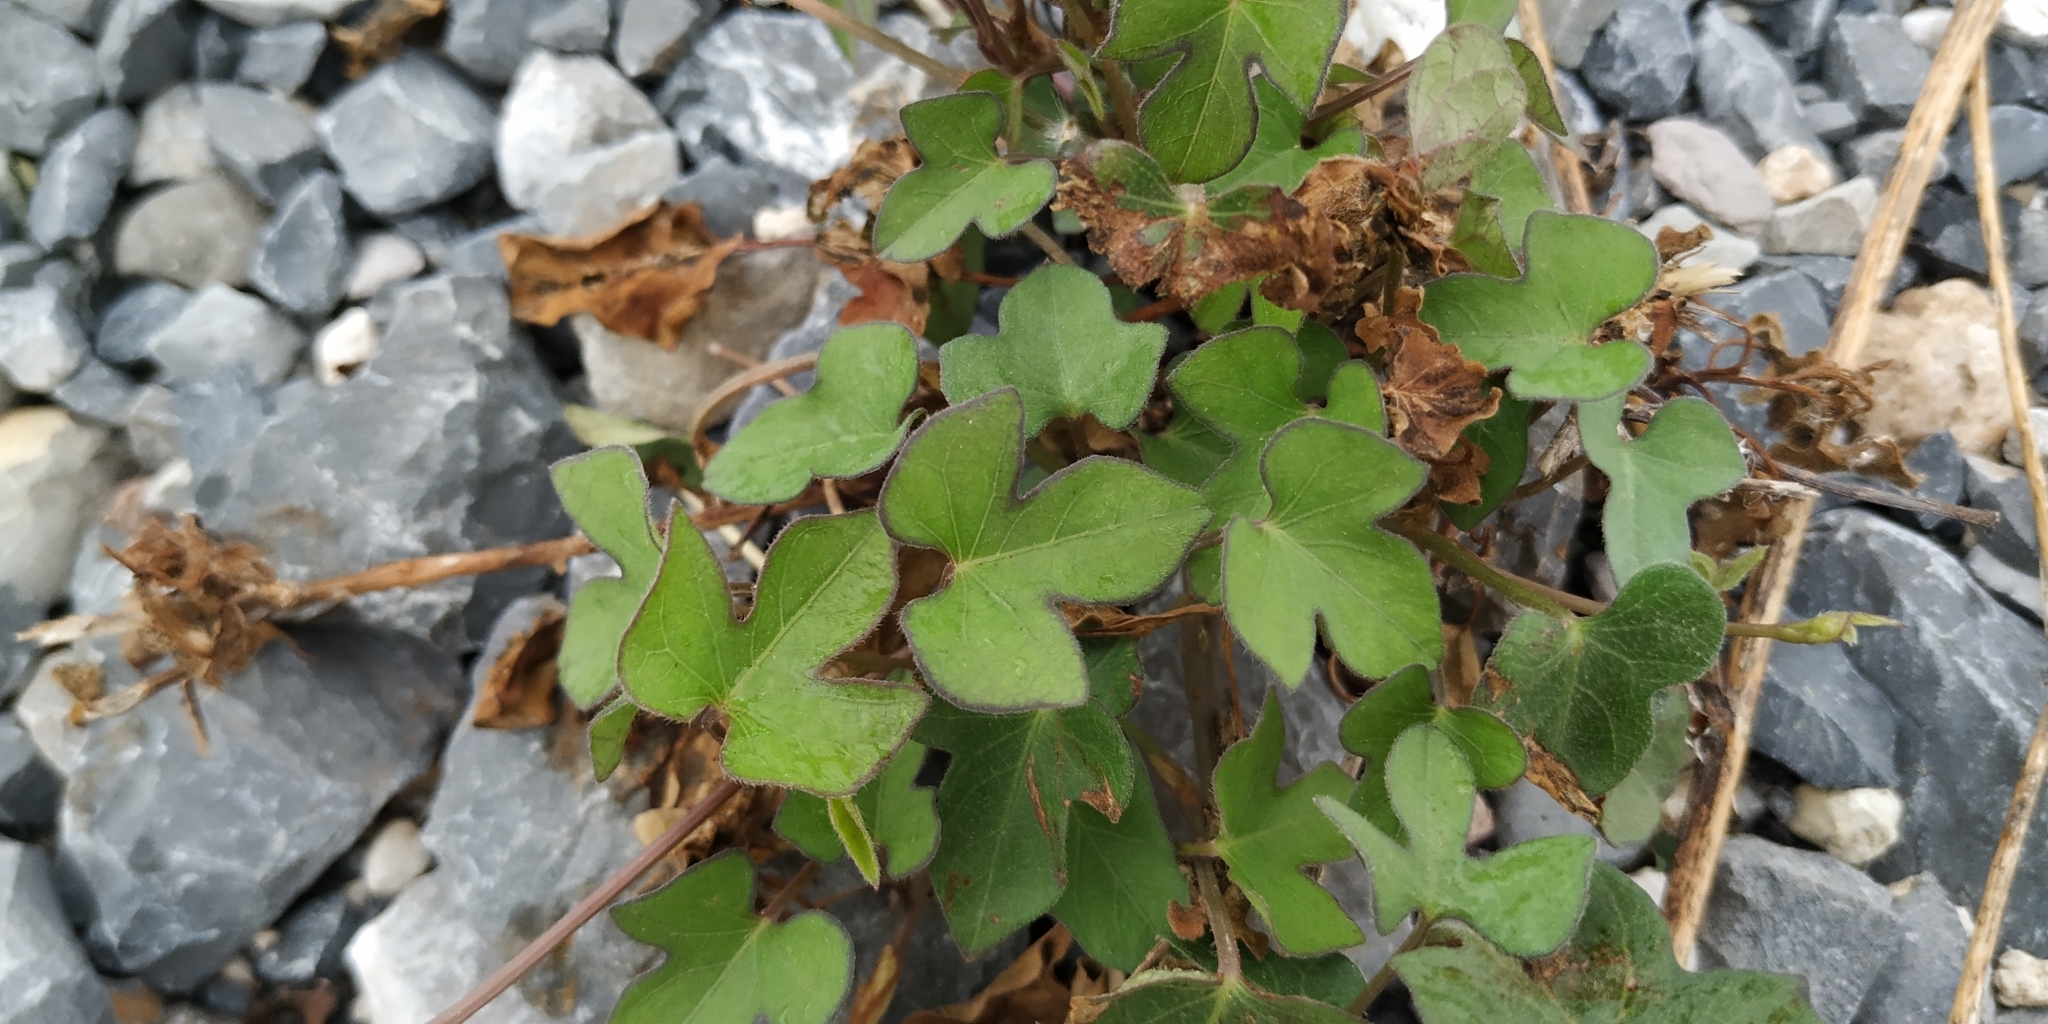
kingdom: Plantae
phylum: Tracheophyta
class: Magnoliopsida
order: Solanales
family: Convolvulaceae
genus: Ipomoea
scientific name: Ipomoea cordatotriloba
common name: Cotton morning glory
